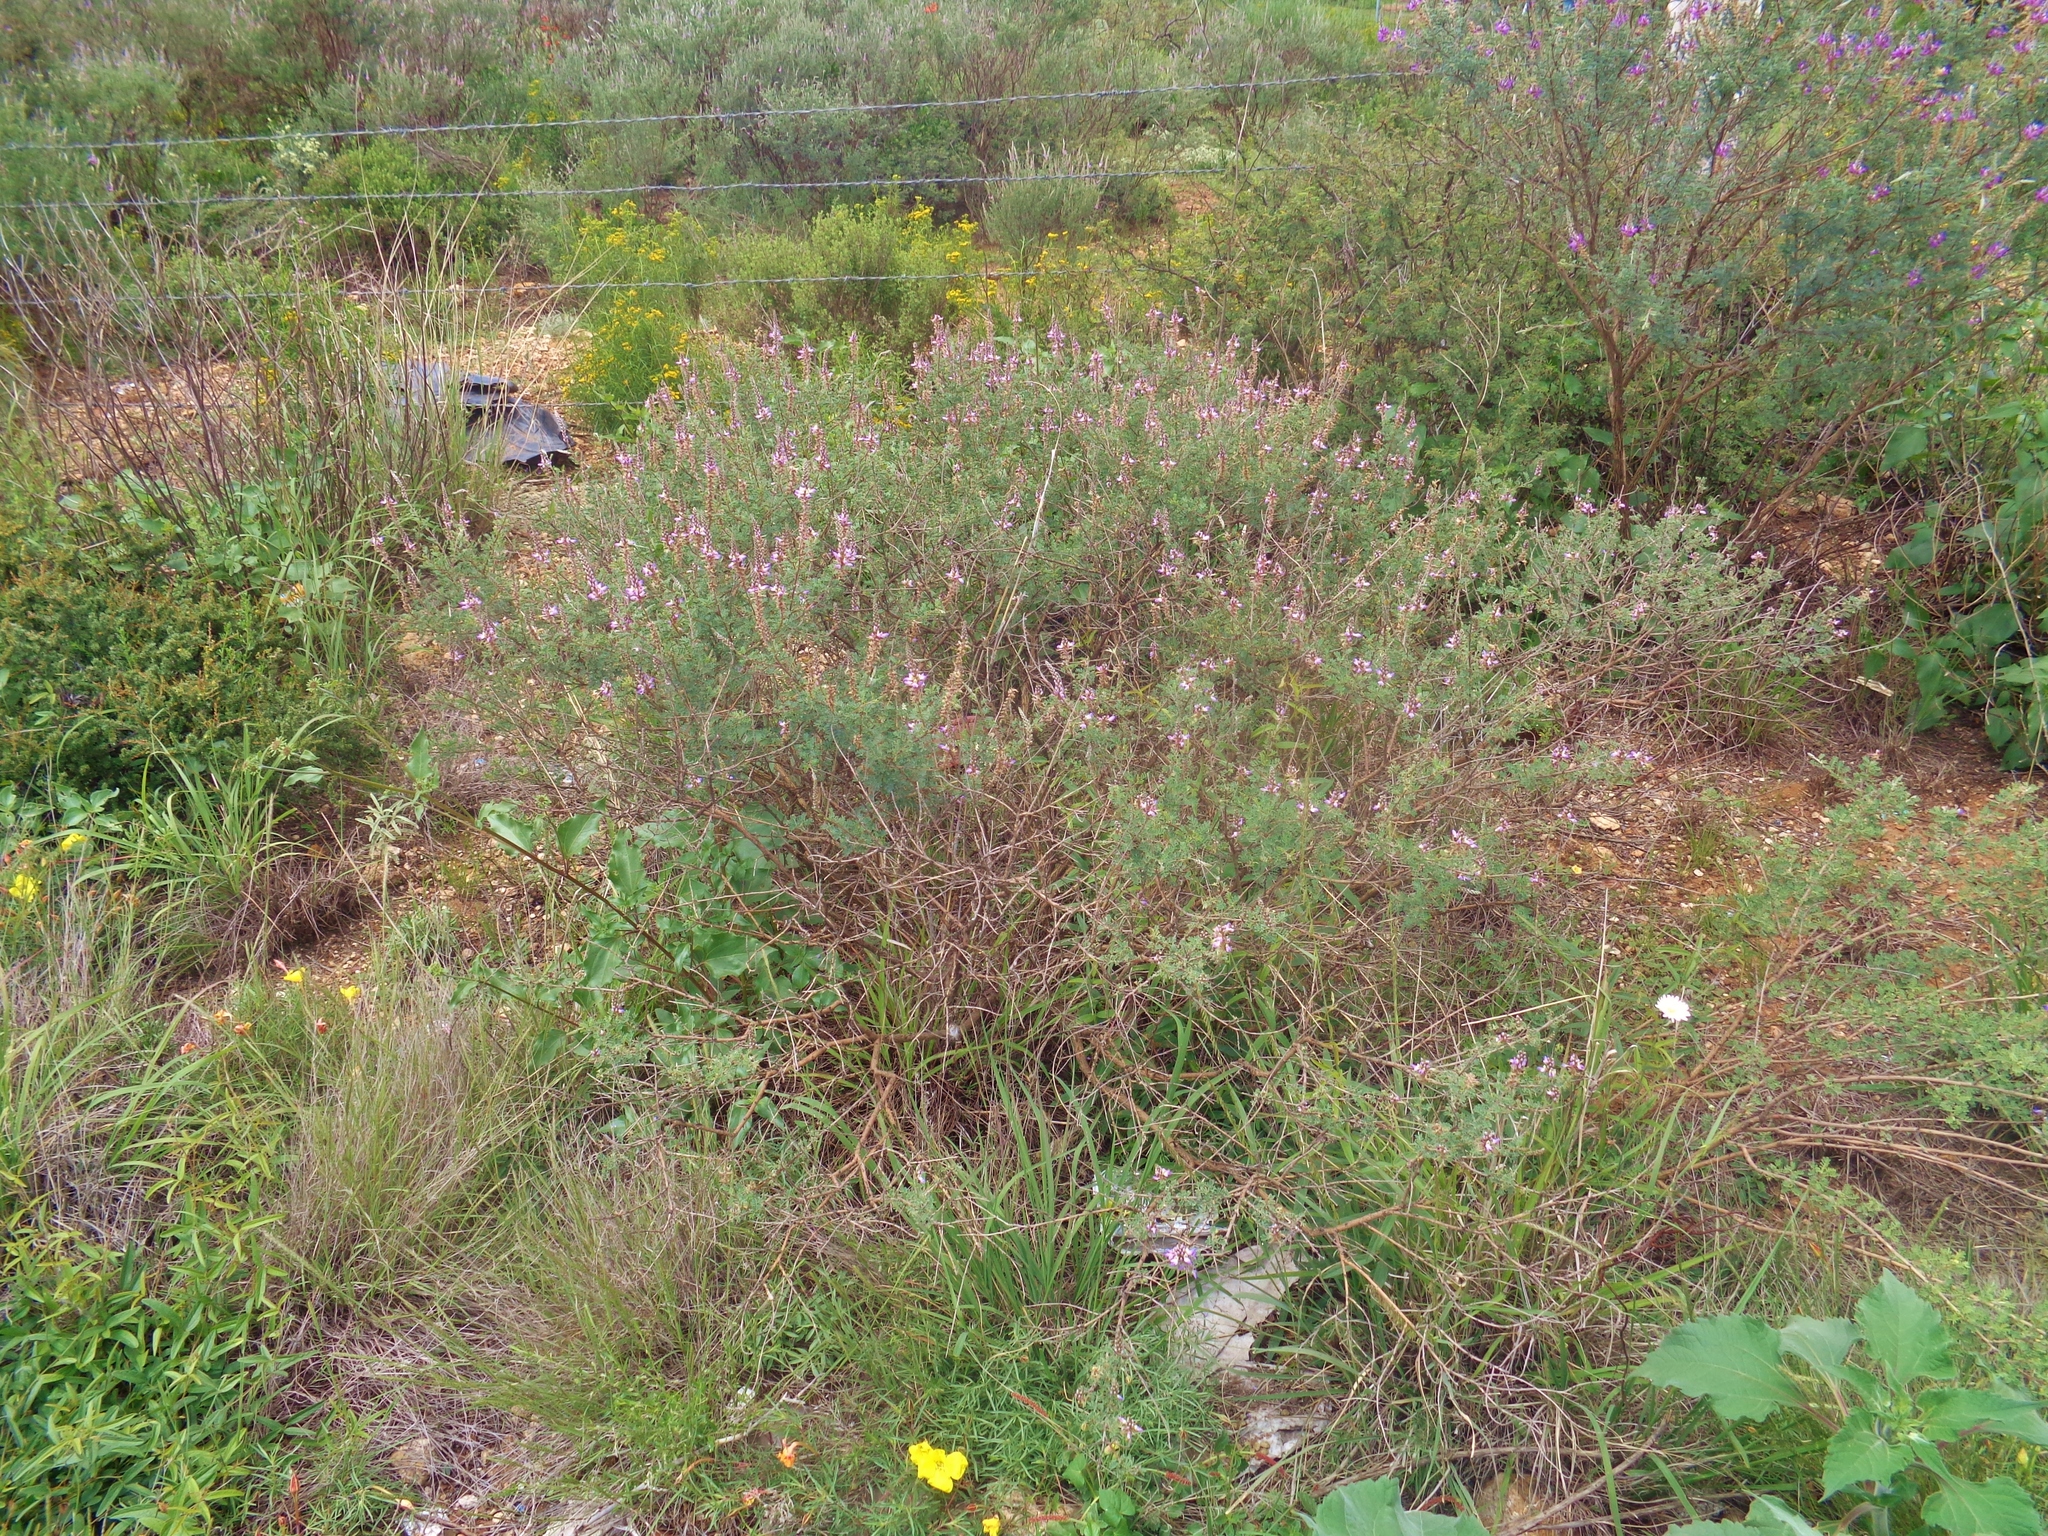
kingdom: Plantae
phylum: Tracheophyta
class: Magnoliopsida
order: Fabales
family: Fabaceae
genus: Dalea
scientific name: Dalea bicolor
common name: Silver prairie-clover
